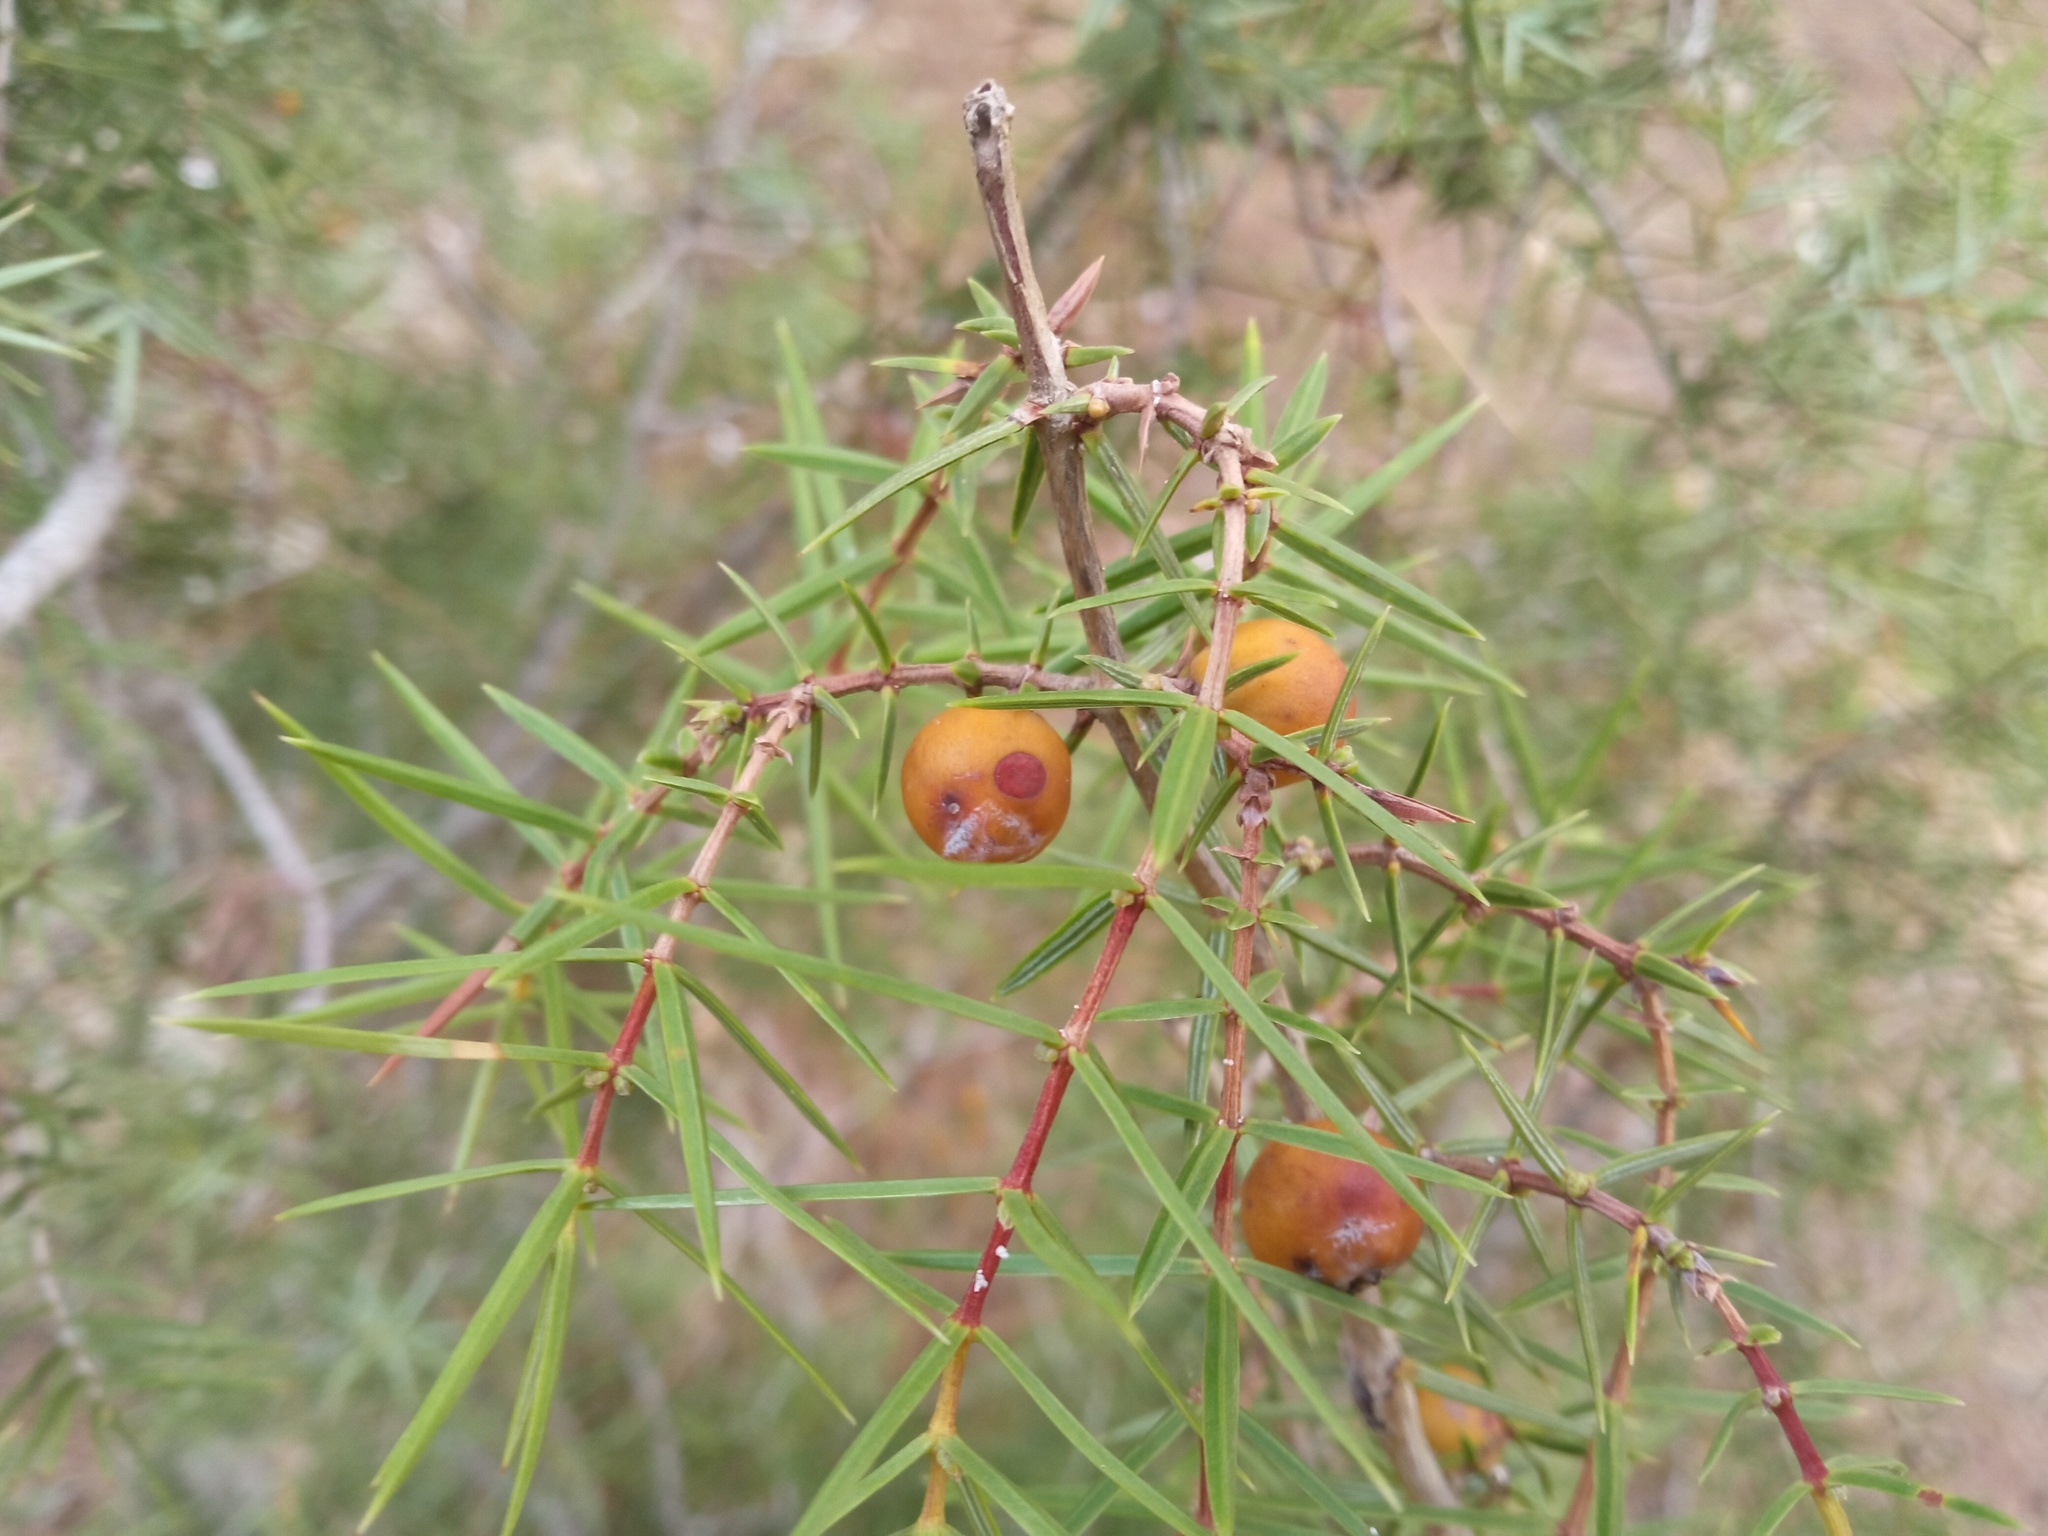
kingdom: Plantae
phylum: Tracheophyta
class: Pinopsida
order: Pinales
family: Cupressaceae
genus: Juniperus
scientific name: Juniperus oxycedrus
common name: Prickly juniper
